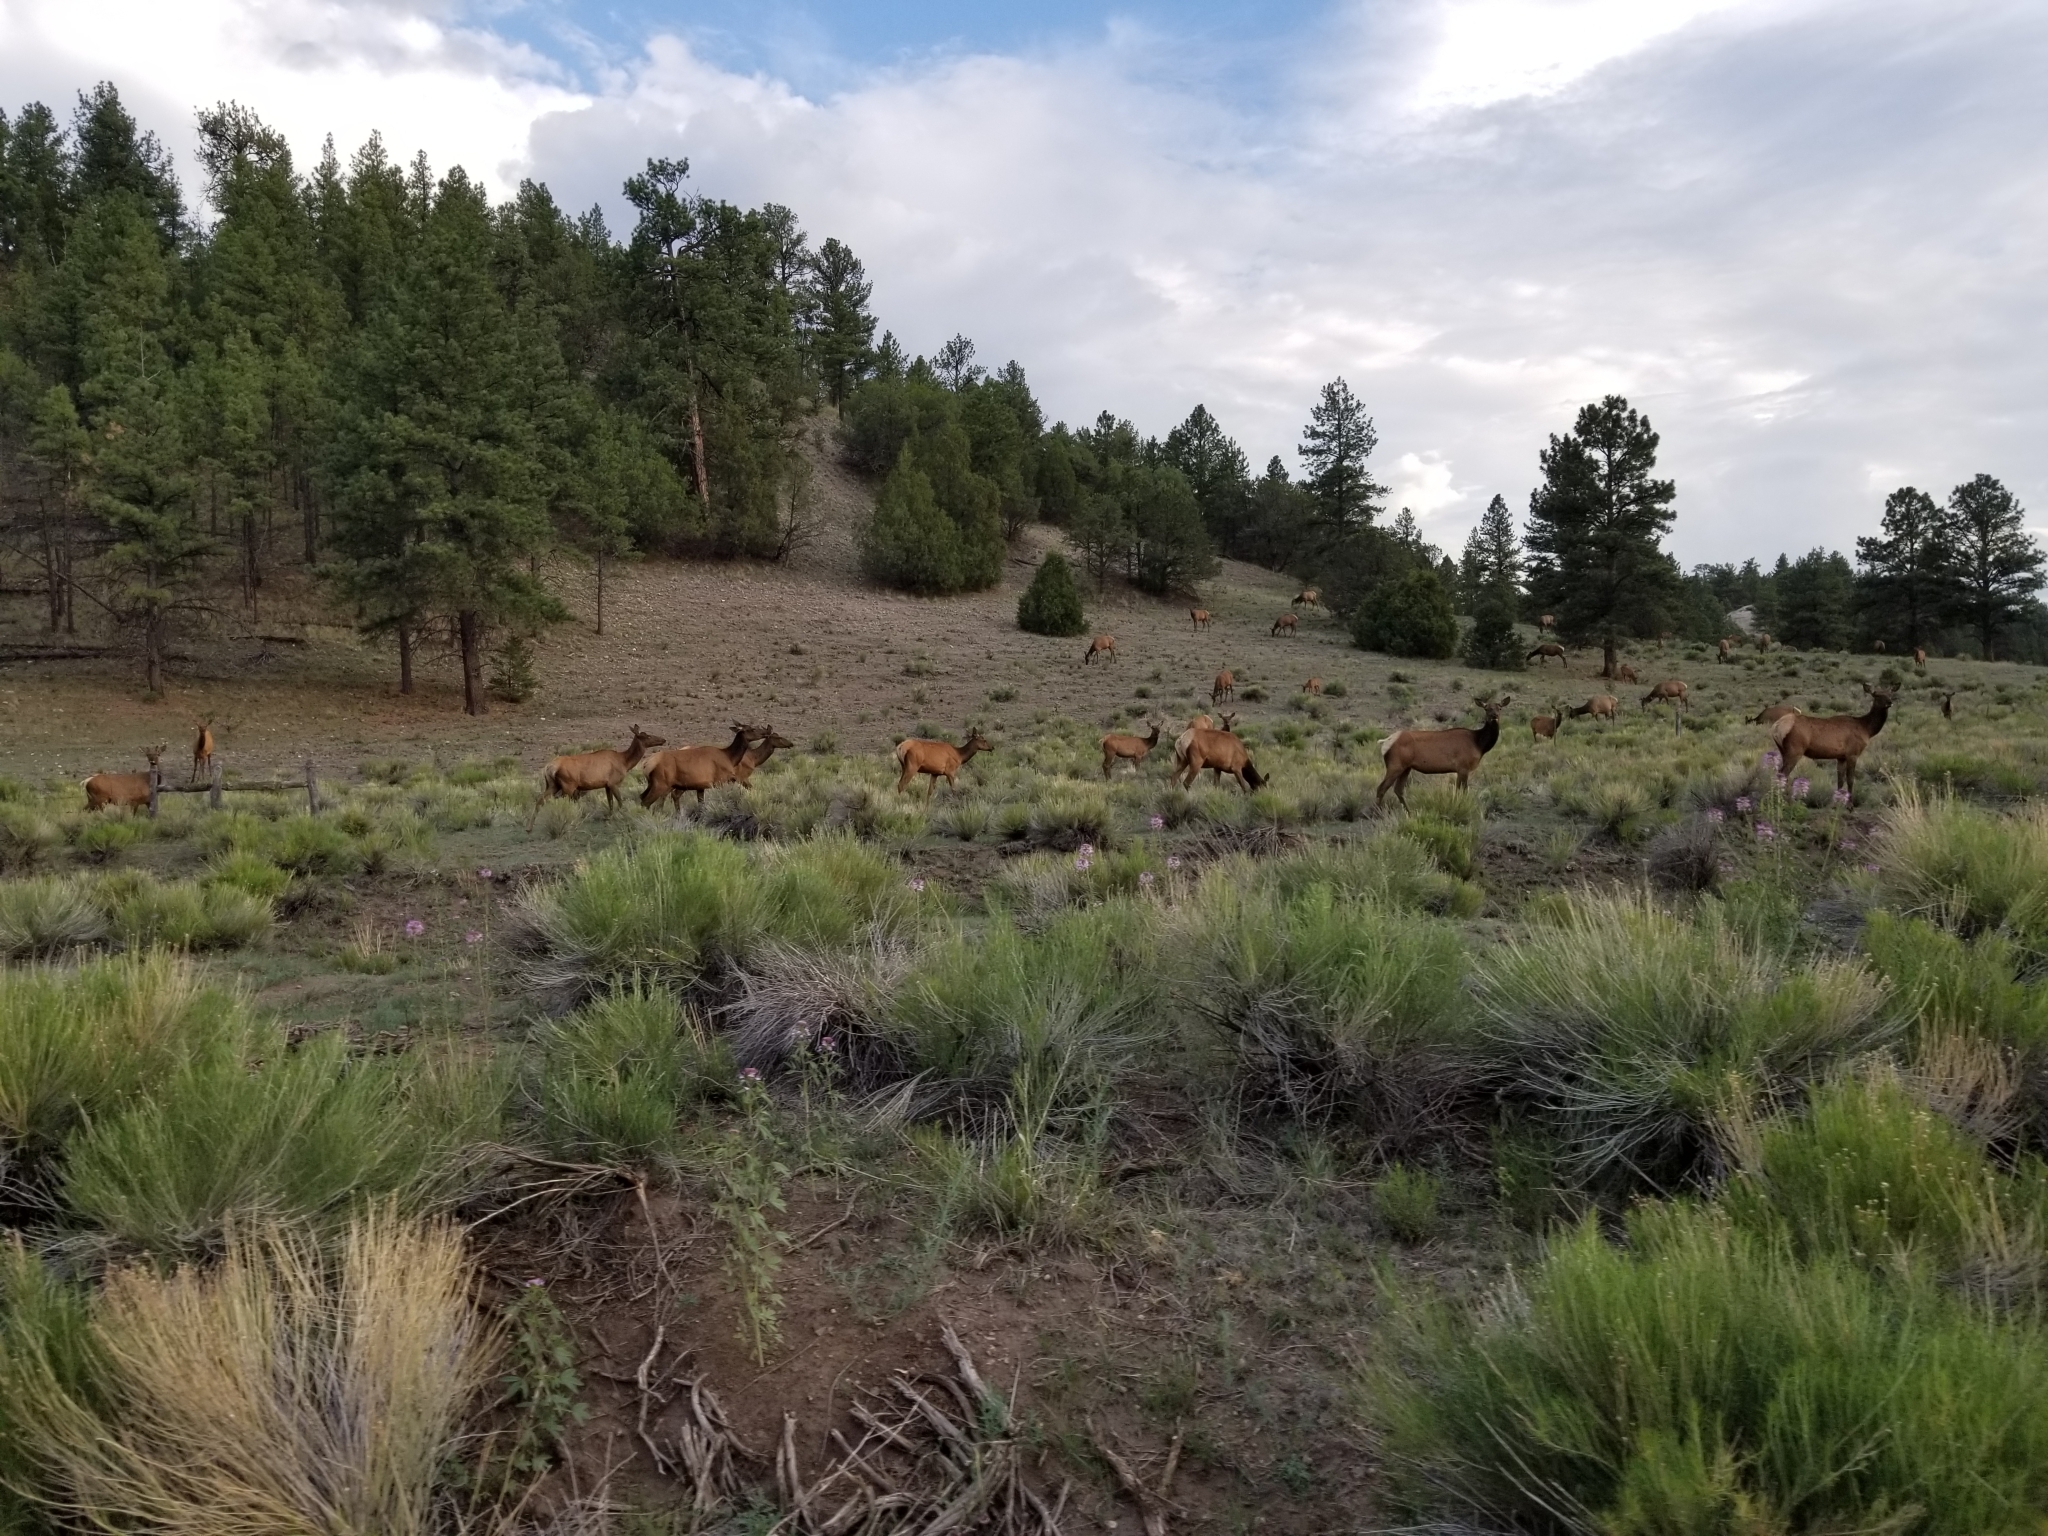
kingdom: Animalia
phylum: Chordata
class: Mammalia
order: Artiodactyla
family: Cervidae
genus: Cervus
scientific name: Cervus elaphus
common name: Red deer
